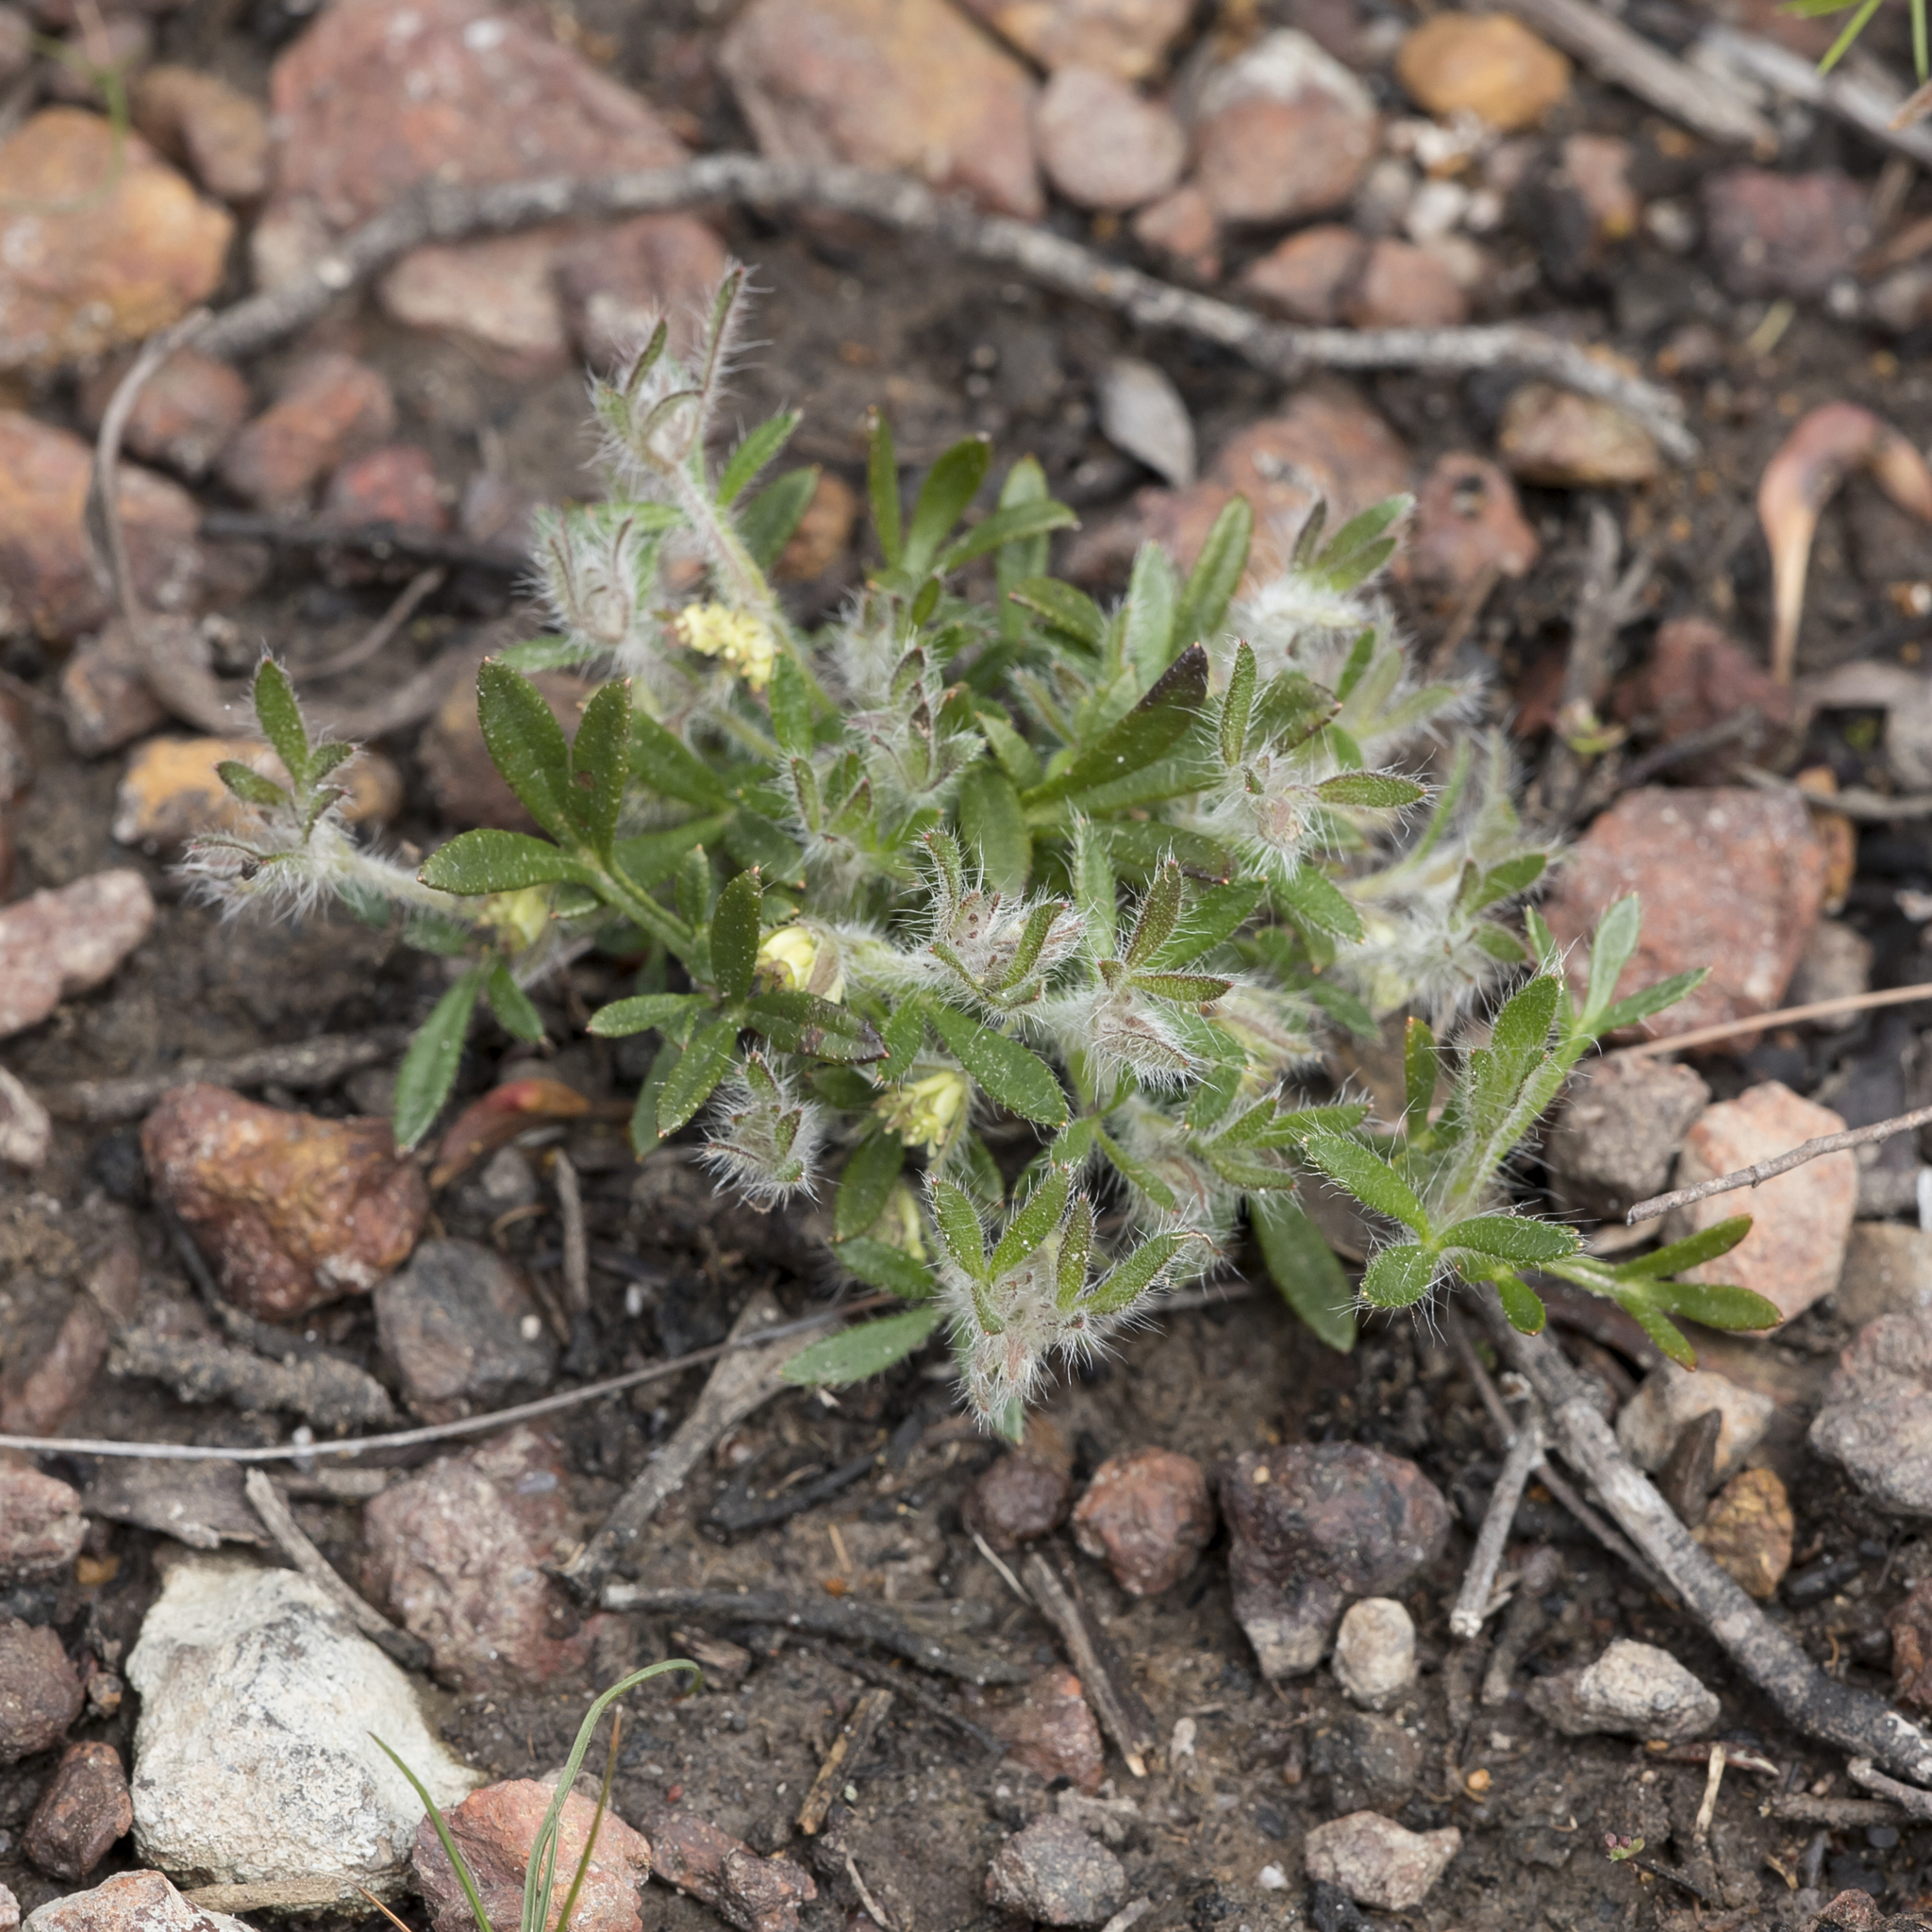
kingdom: Plantae
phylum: Tracheophyta
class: Magnoliopsida
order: Apiales
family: Apiaceae
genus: Xanthosia
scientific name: Xanthosia huegelii
